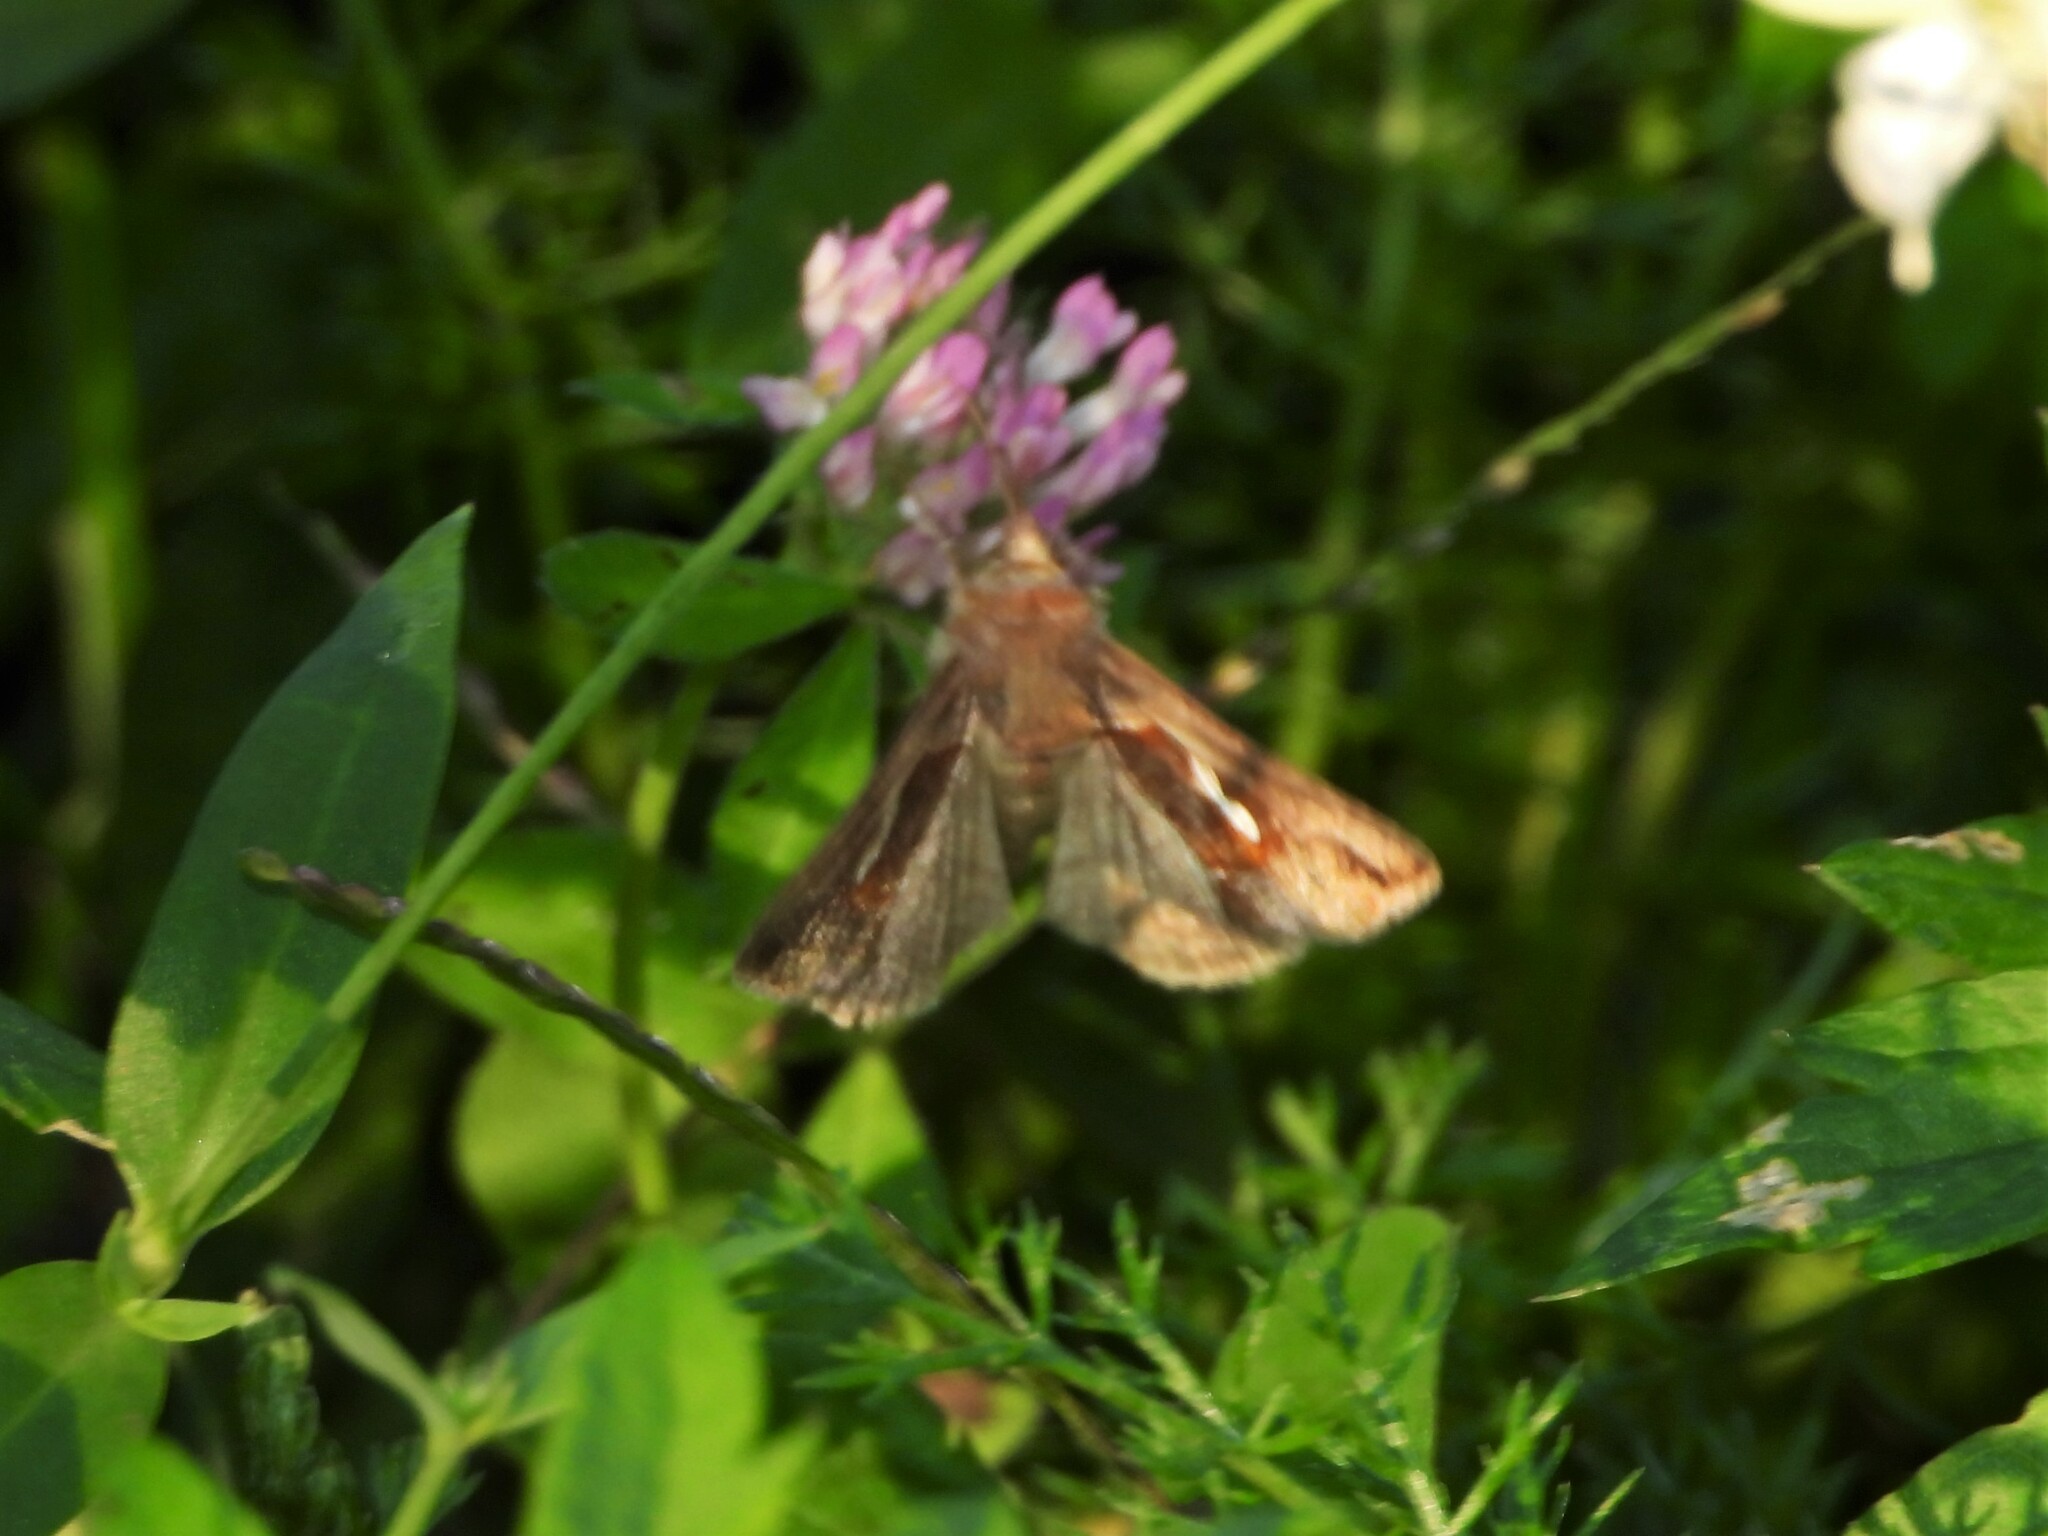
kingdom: Animalia
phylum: Arthropoda
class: Insecta
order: Lepidoptera
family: Noctuidae
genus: Macdunnoughia
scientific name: Macdunnoughia confusa
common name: Dewick's plusia
